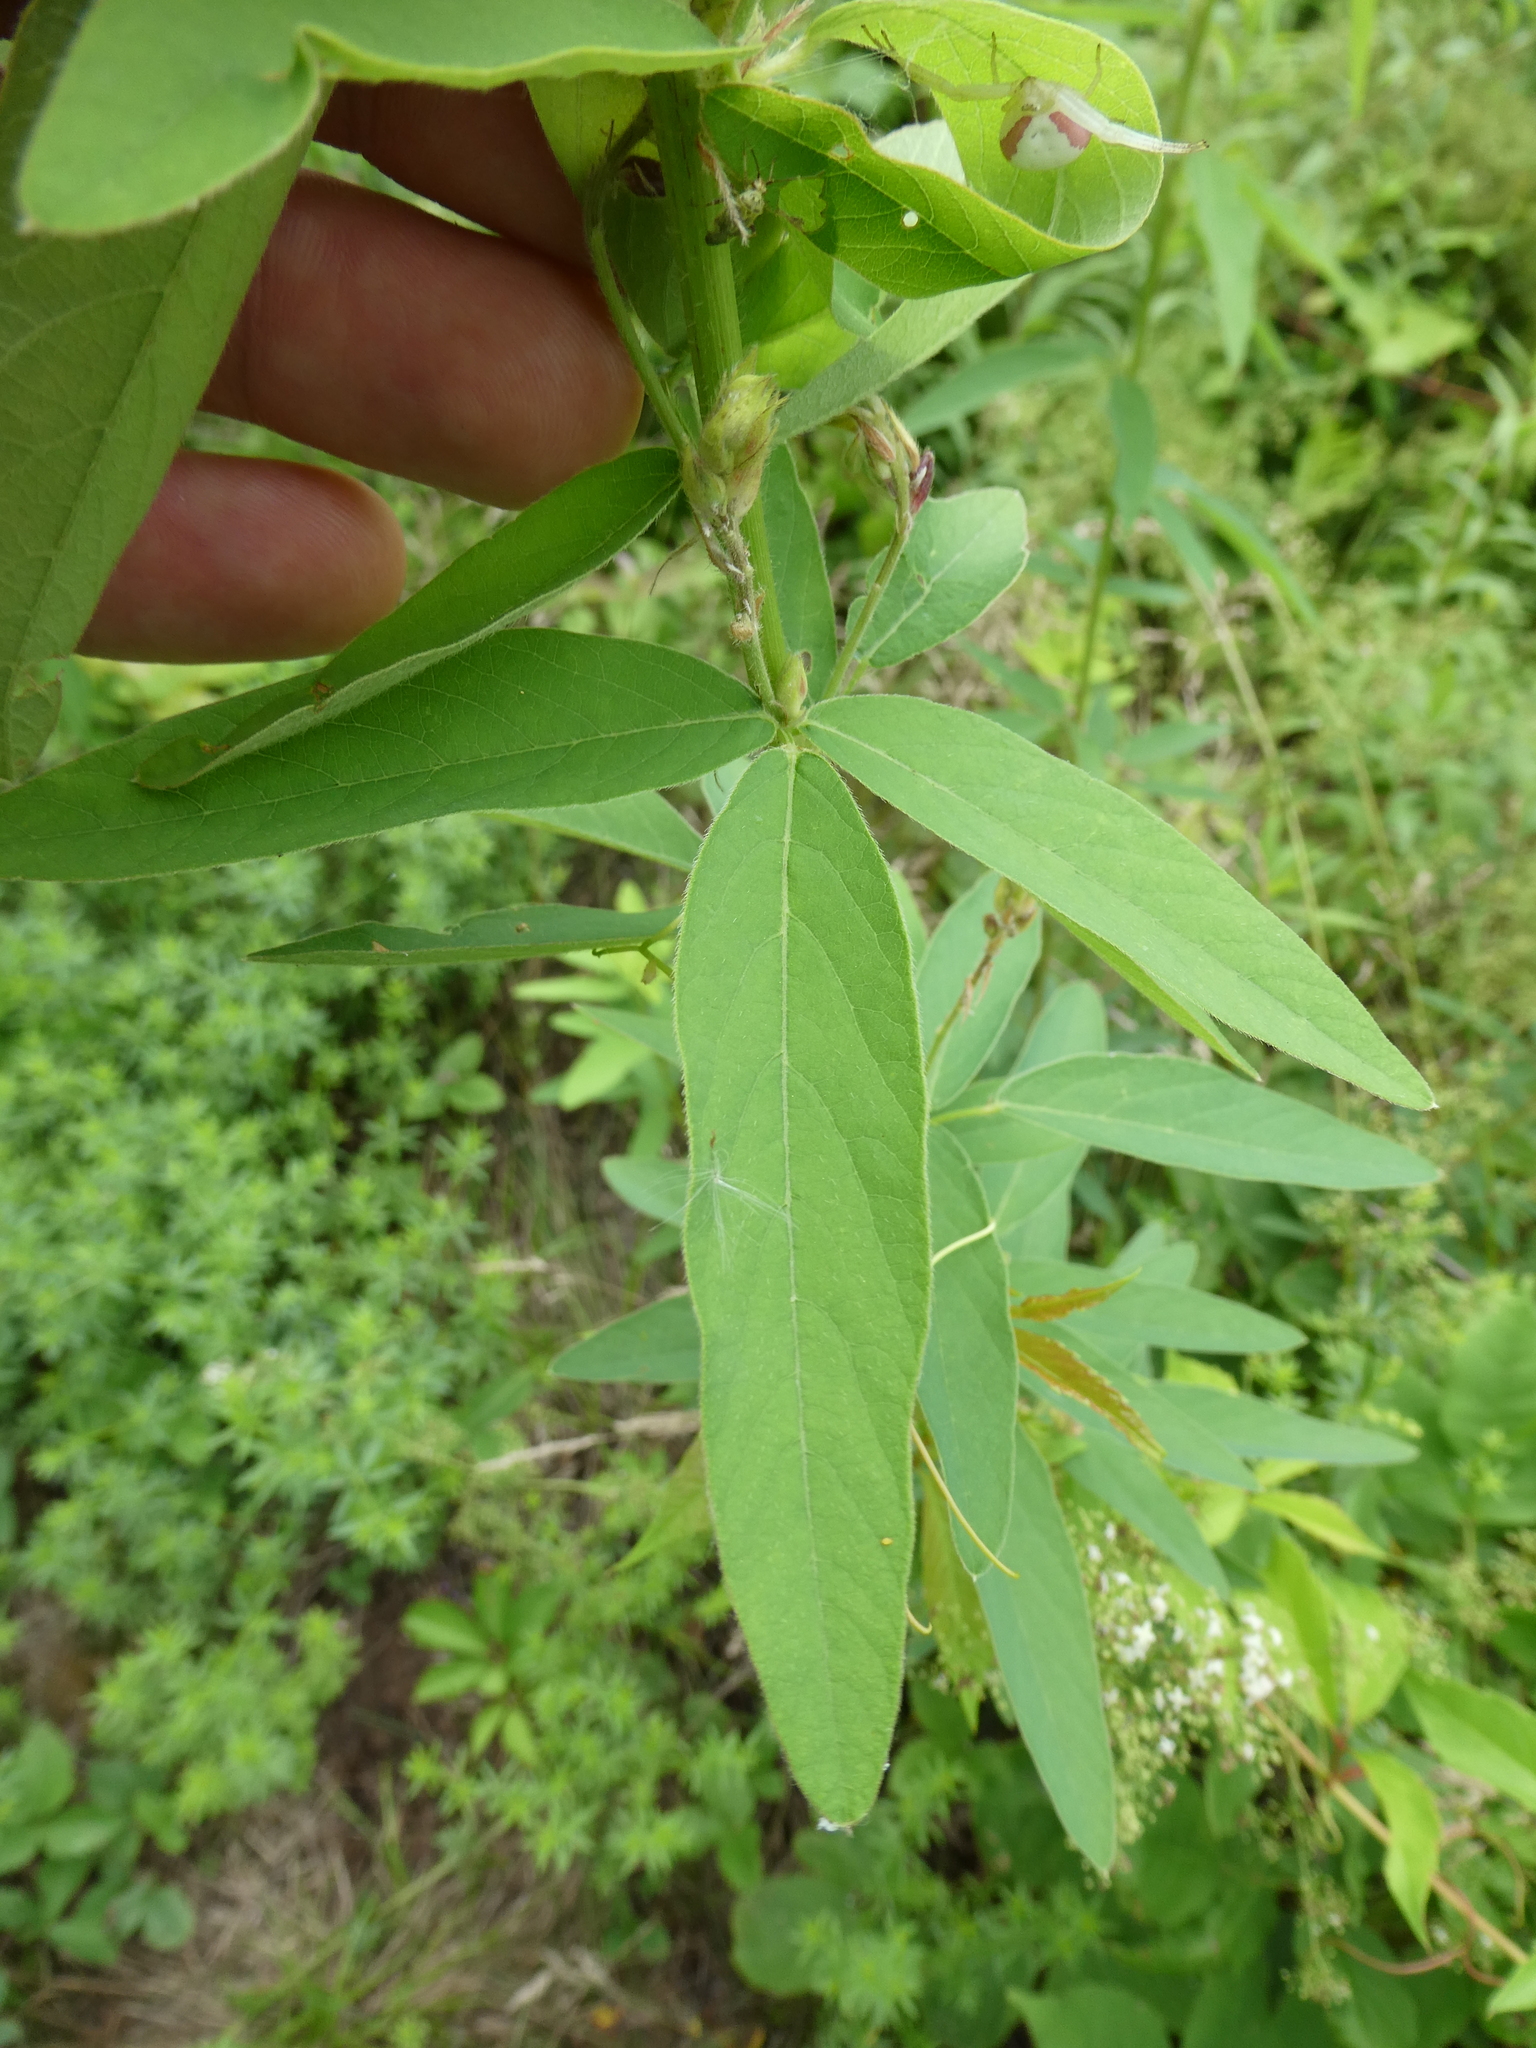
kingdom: Plantae
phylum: Tracheophyta
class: Magnoliopsida
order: Fabales
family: Fabaceae
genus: Desmodium
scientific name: Desmodium canadense
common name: Canada tick-trefoil
